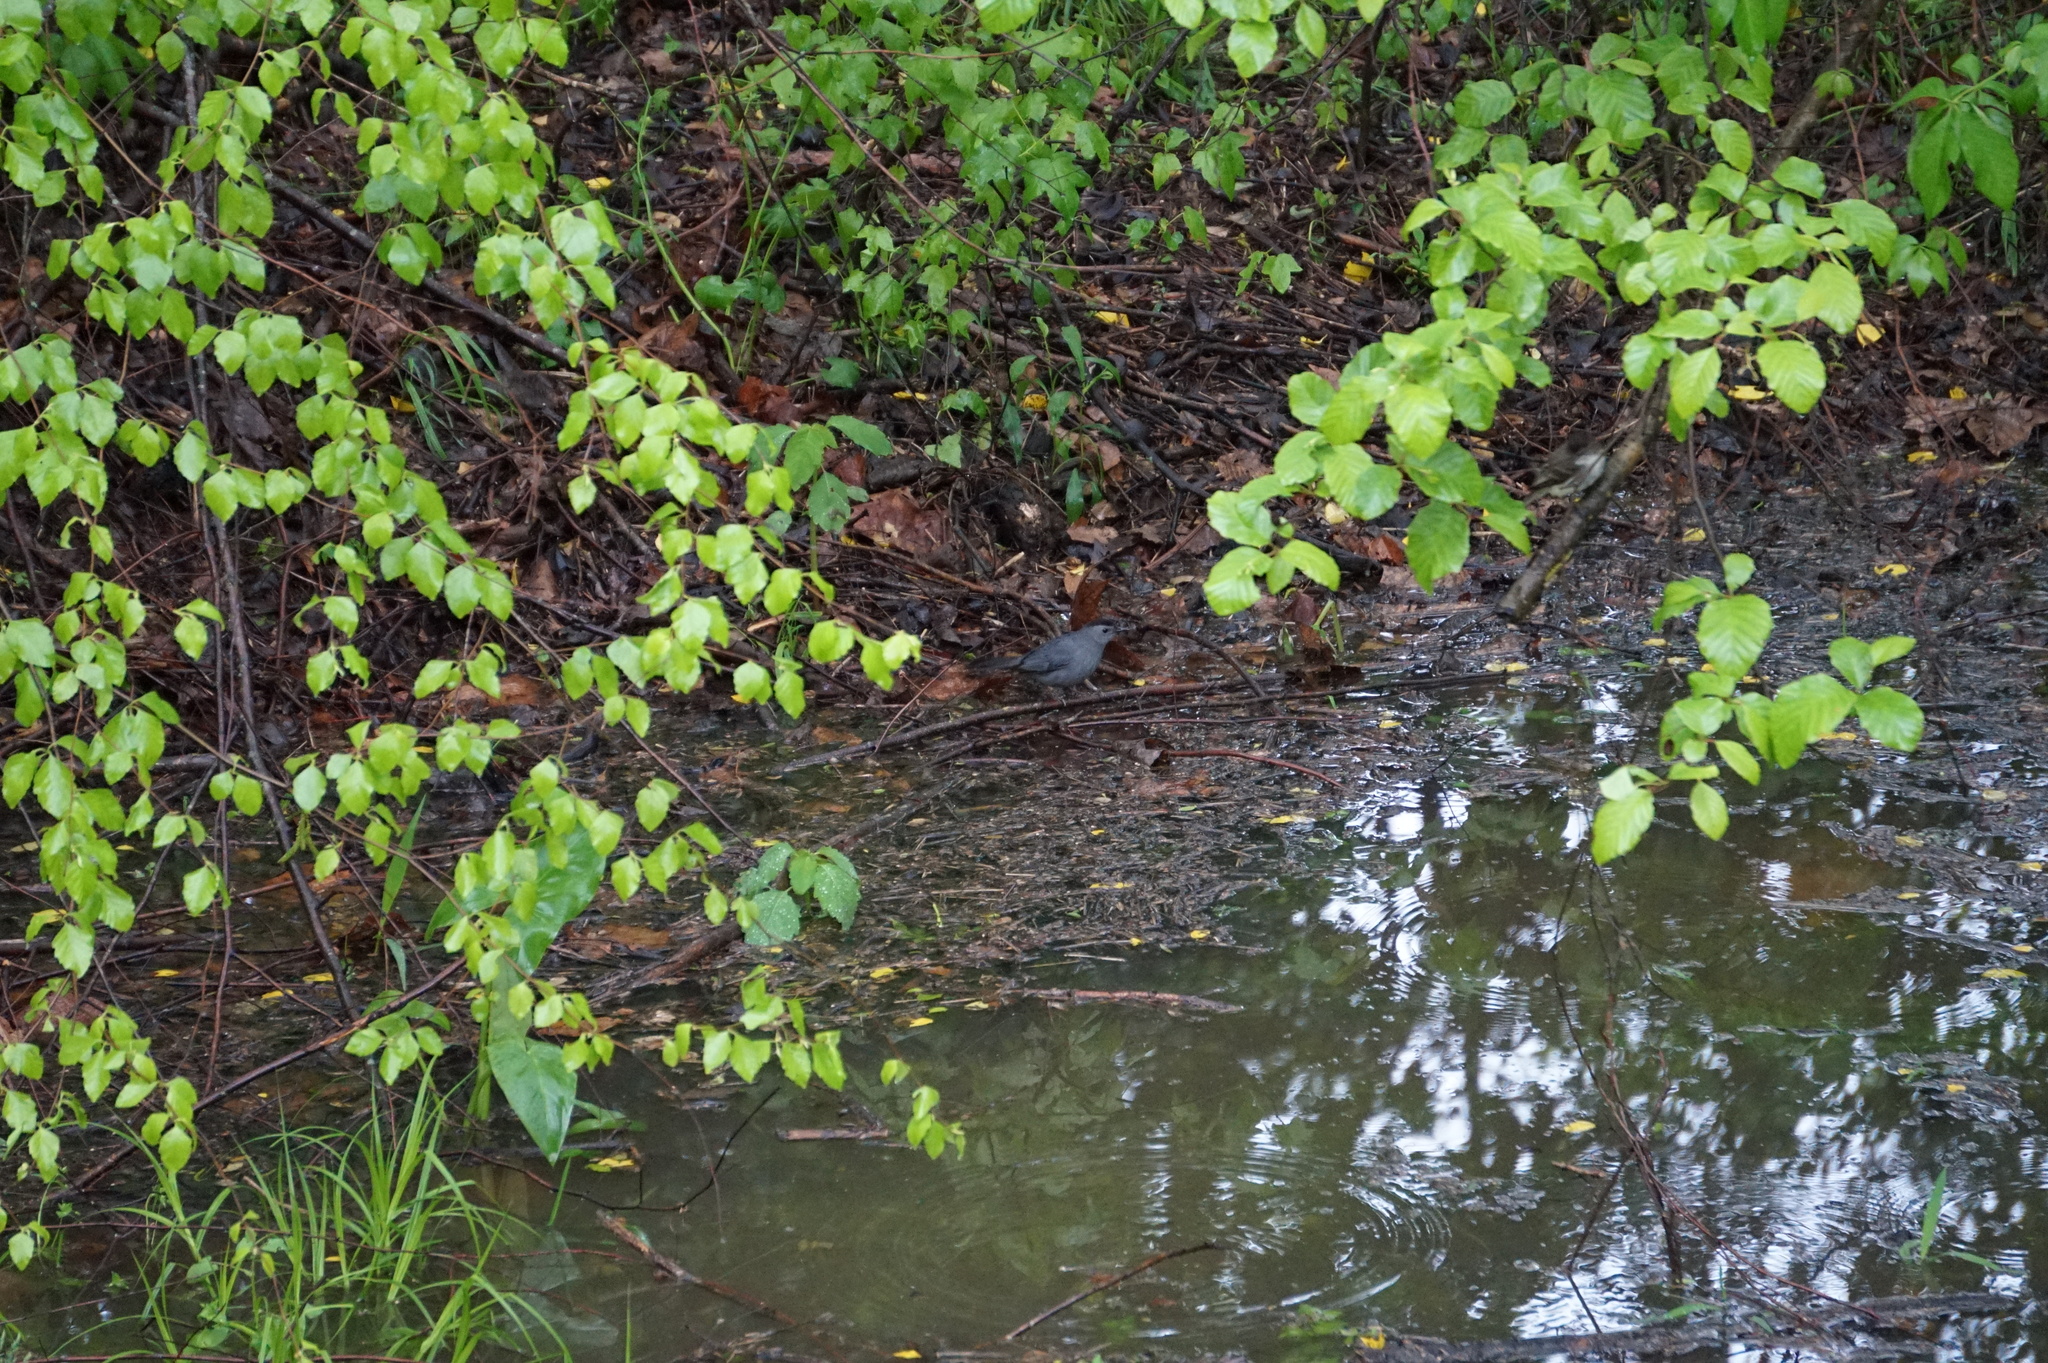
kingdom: Animalia
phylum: Chordata
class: Aves
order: Passeriformes
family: Mimidae
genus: Dumetella
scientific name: Dumetella carolinensis
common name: Gray catbird
